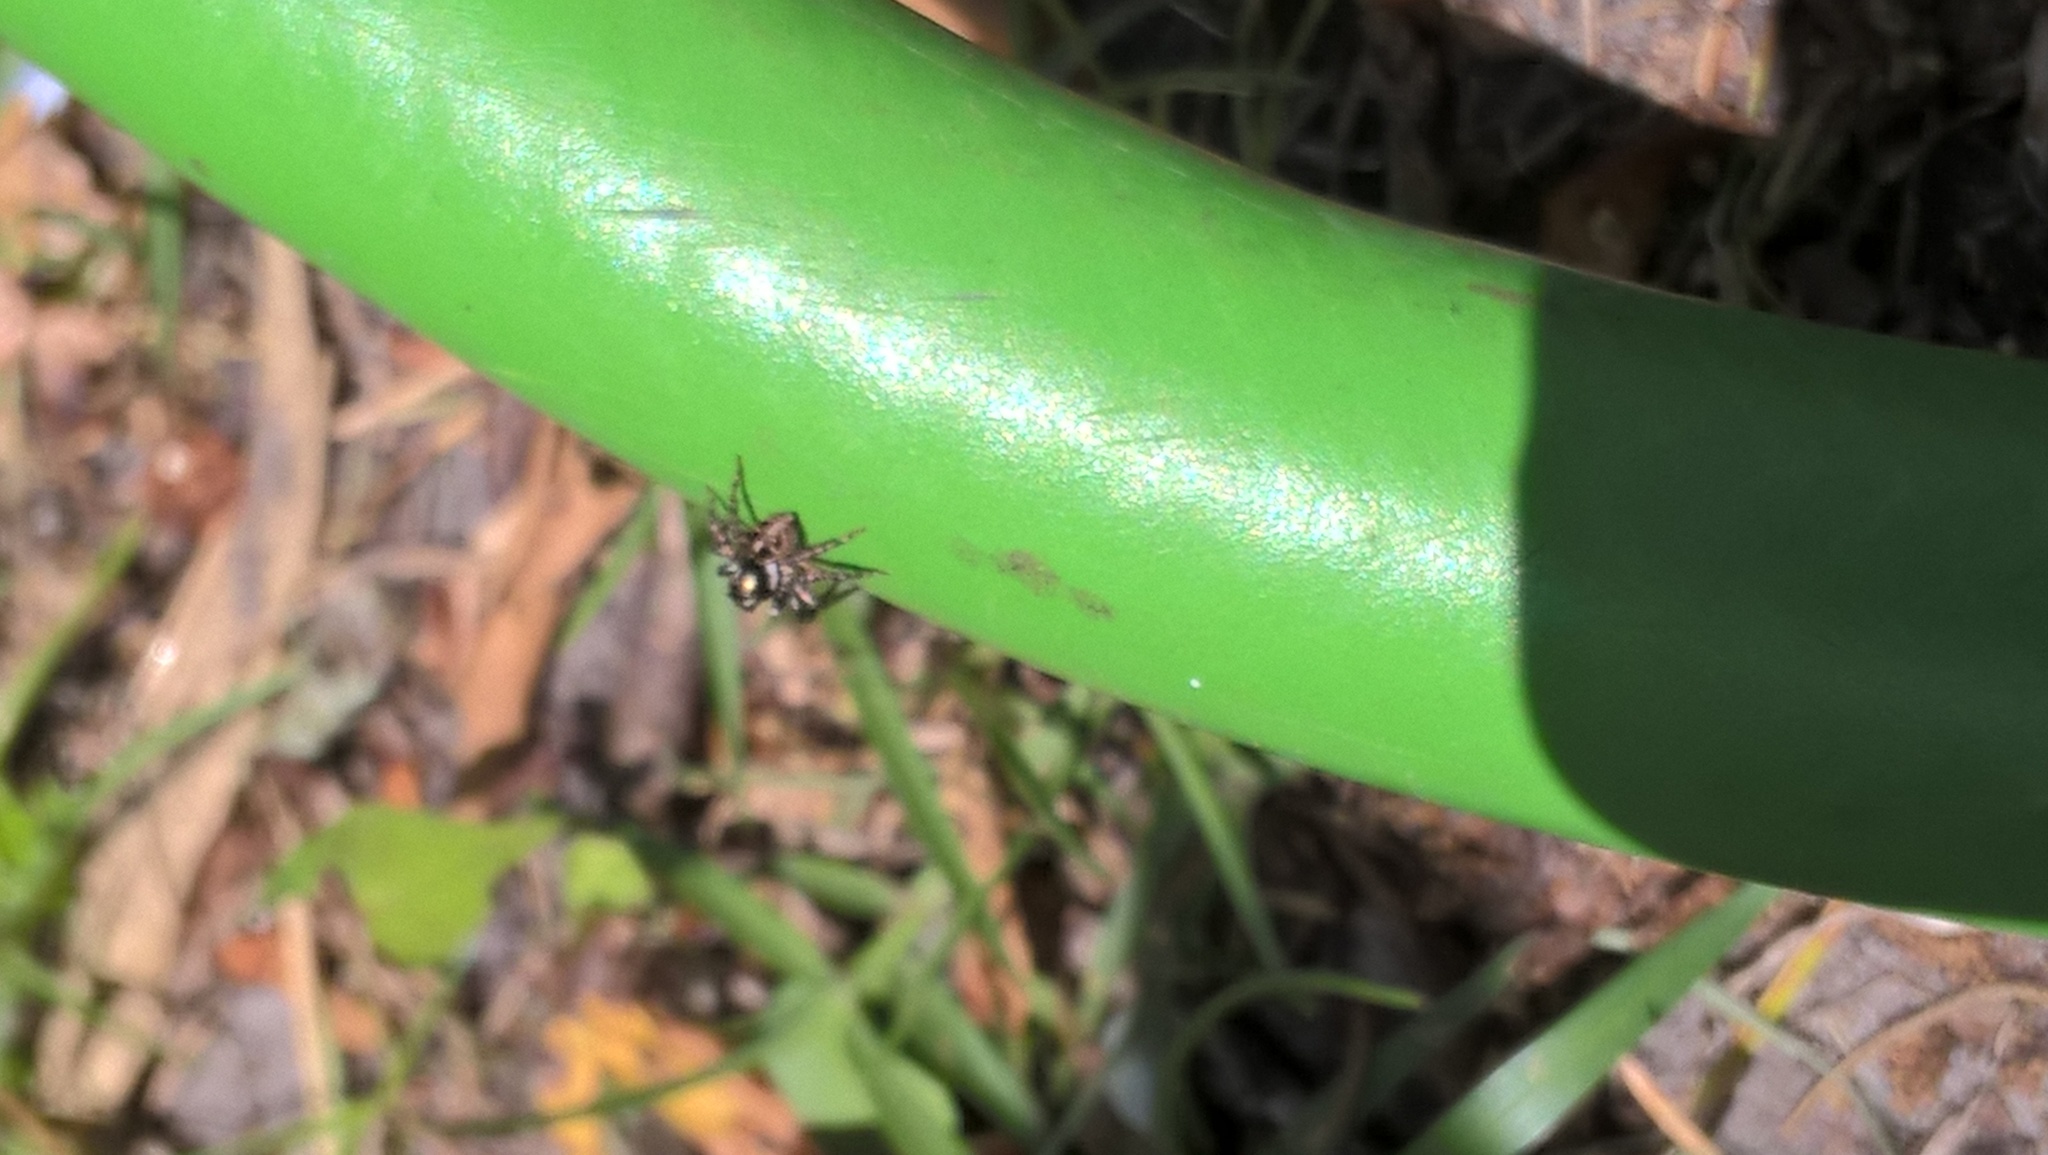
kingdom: Animalia
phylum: Arthropoda
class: Arachnida
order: Araneae
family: Salticidae
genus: Anasaitis
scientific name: Anasaitis canosa
